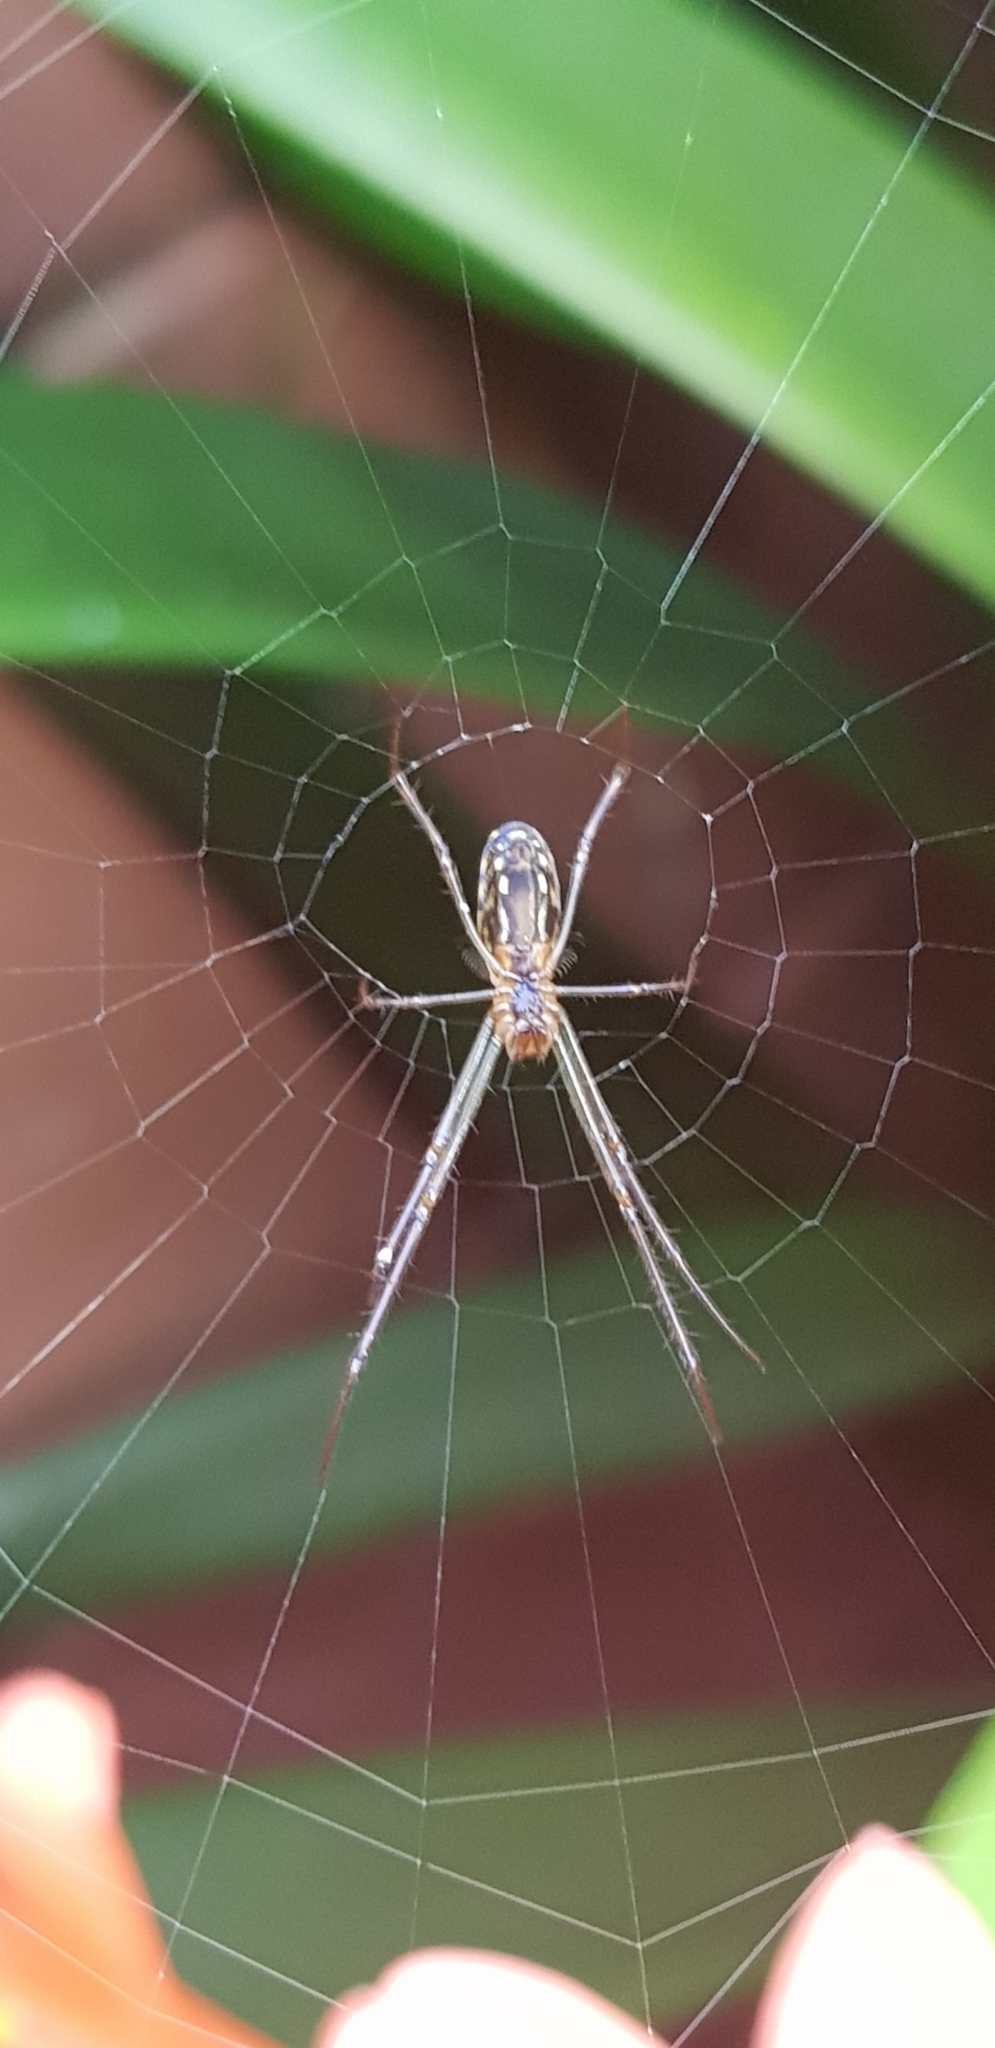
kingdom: Animalia
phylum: Arthropoda
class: Arachnida
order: Araneae
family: Tetragnathidae
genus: Leucauge
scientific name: Leucauge dromedaria
